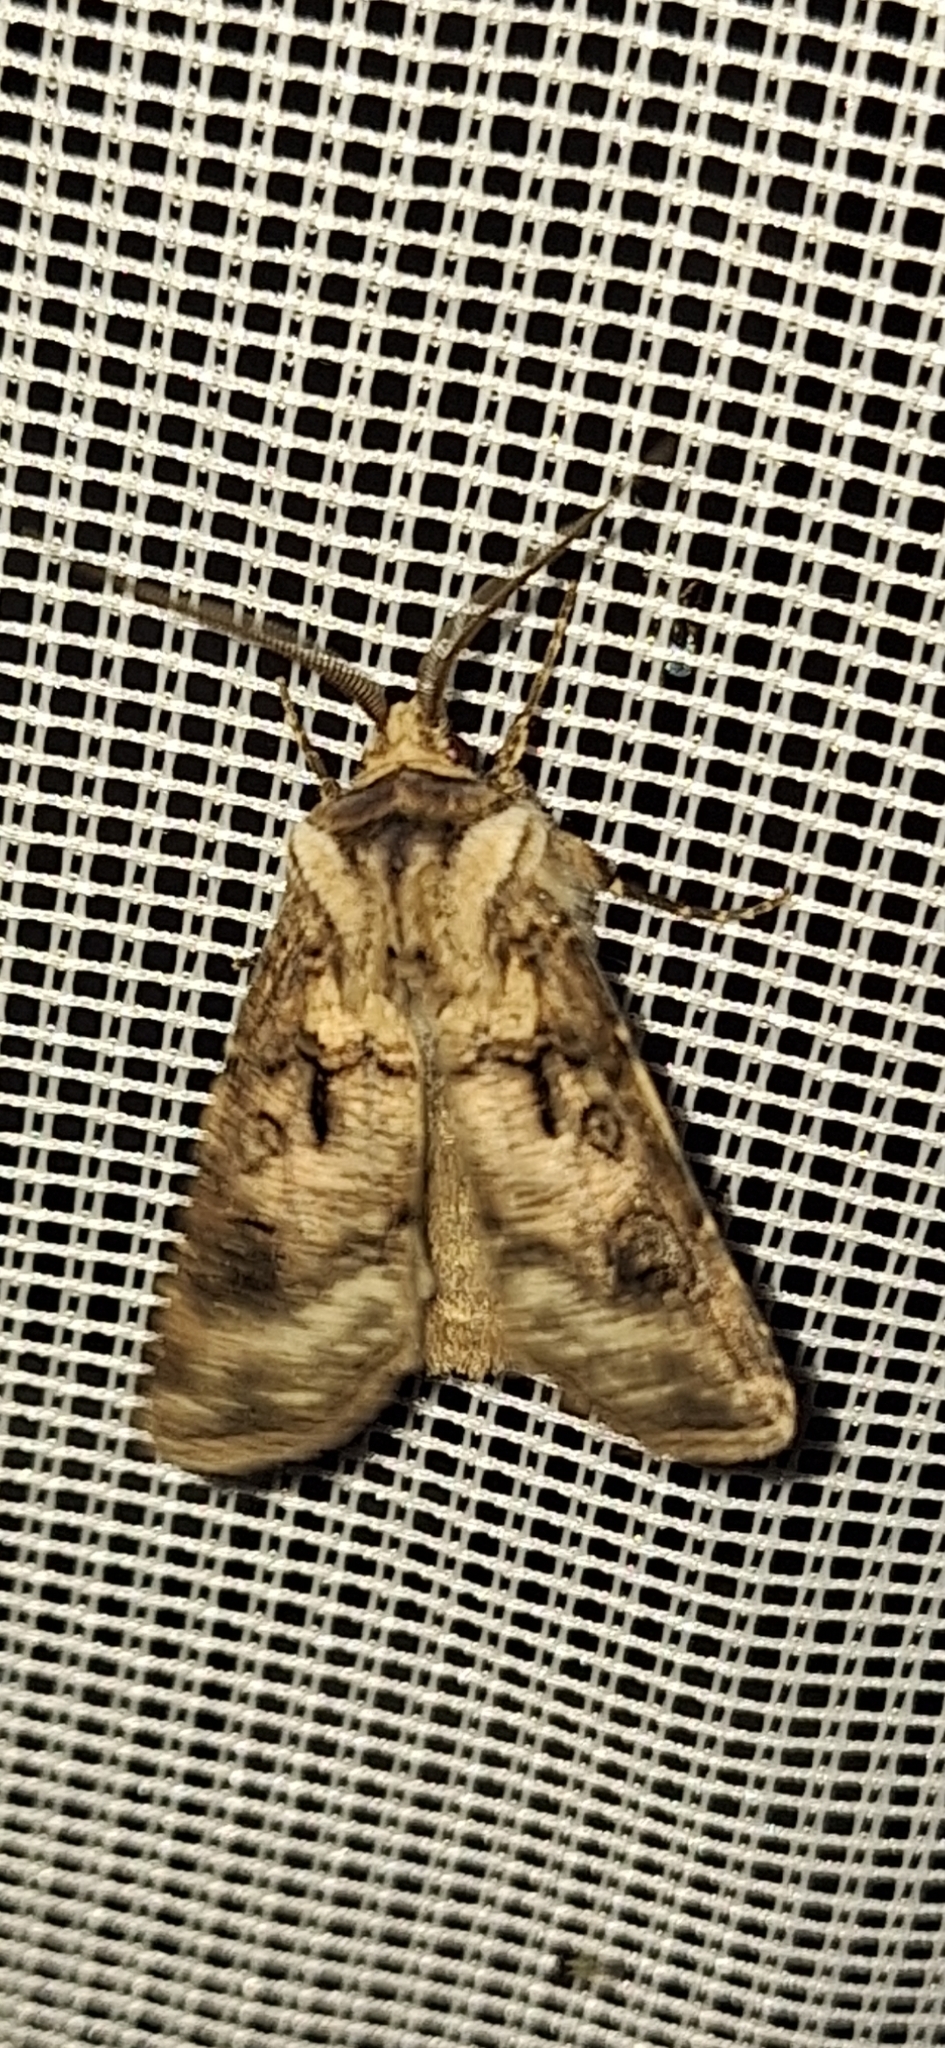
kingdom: Animalia
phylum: Arthropoda
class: Insecta
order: Lepidoptera
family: Noctuidae
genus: Agrotis
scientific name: Agrotis clavis
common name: Heart and club
